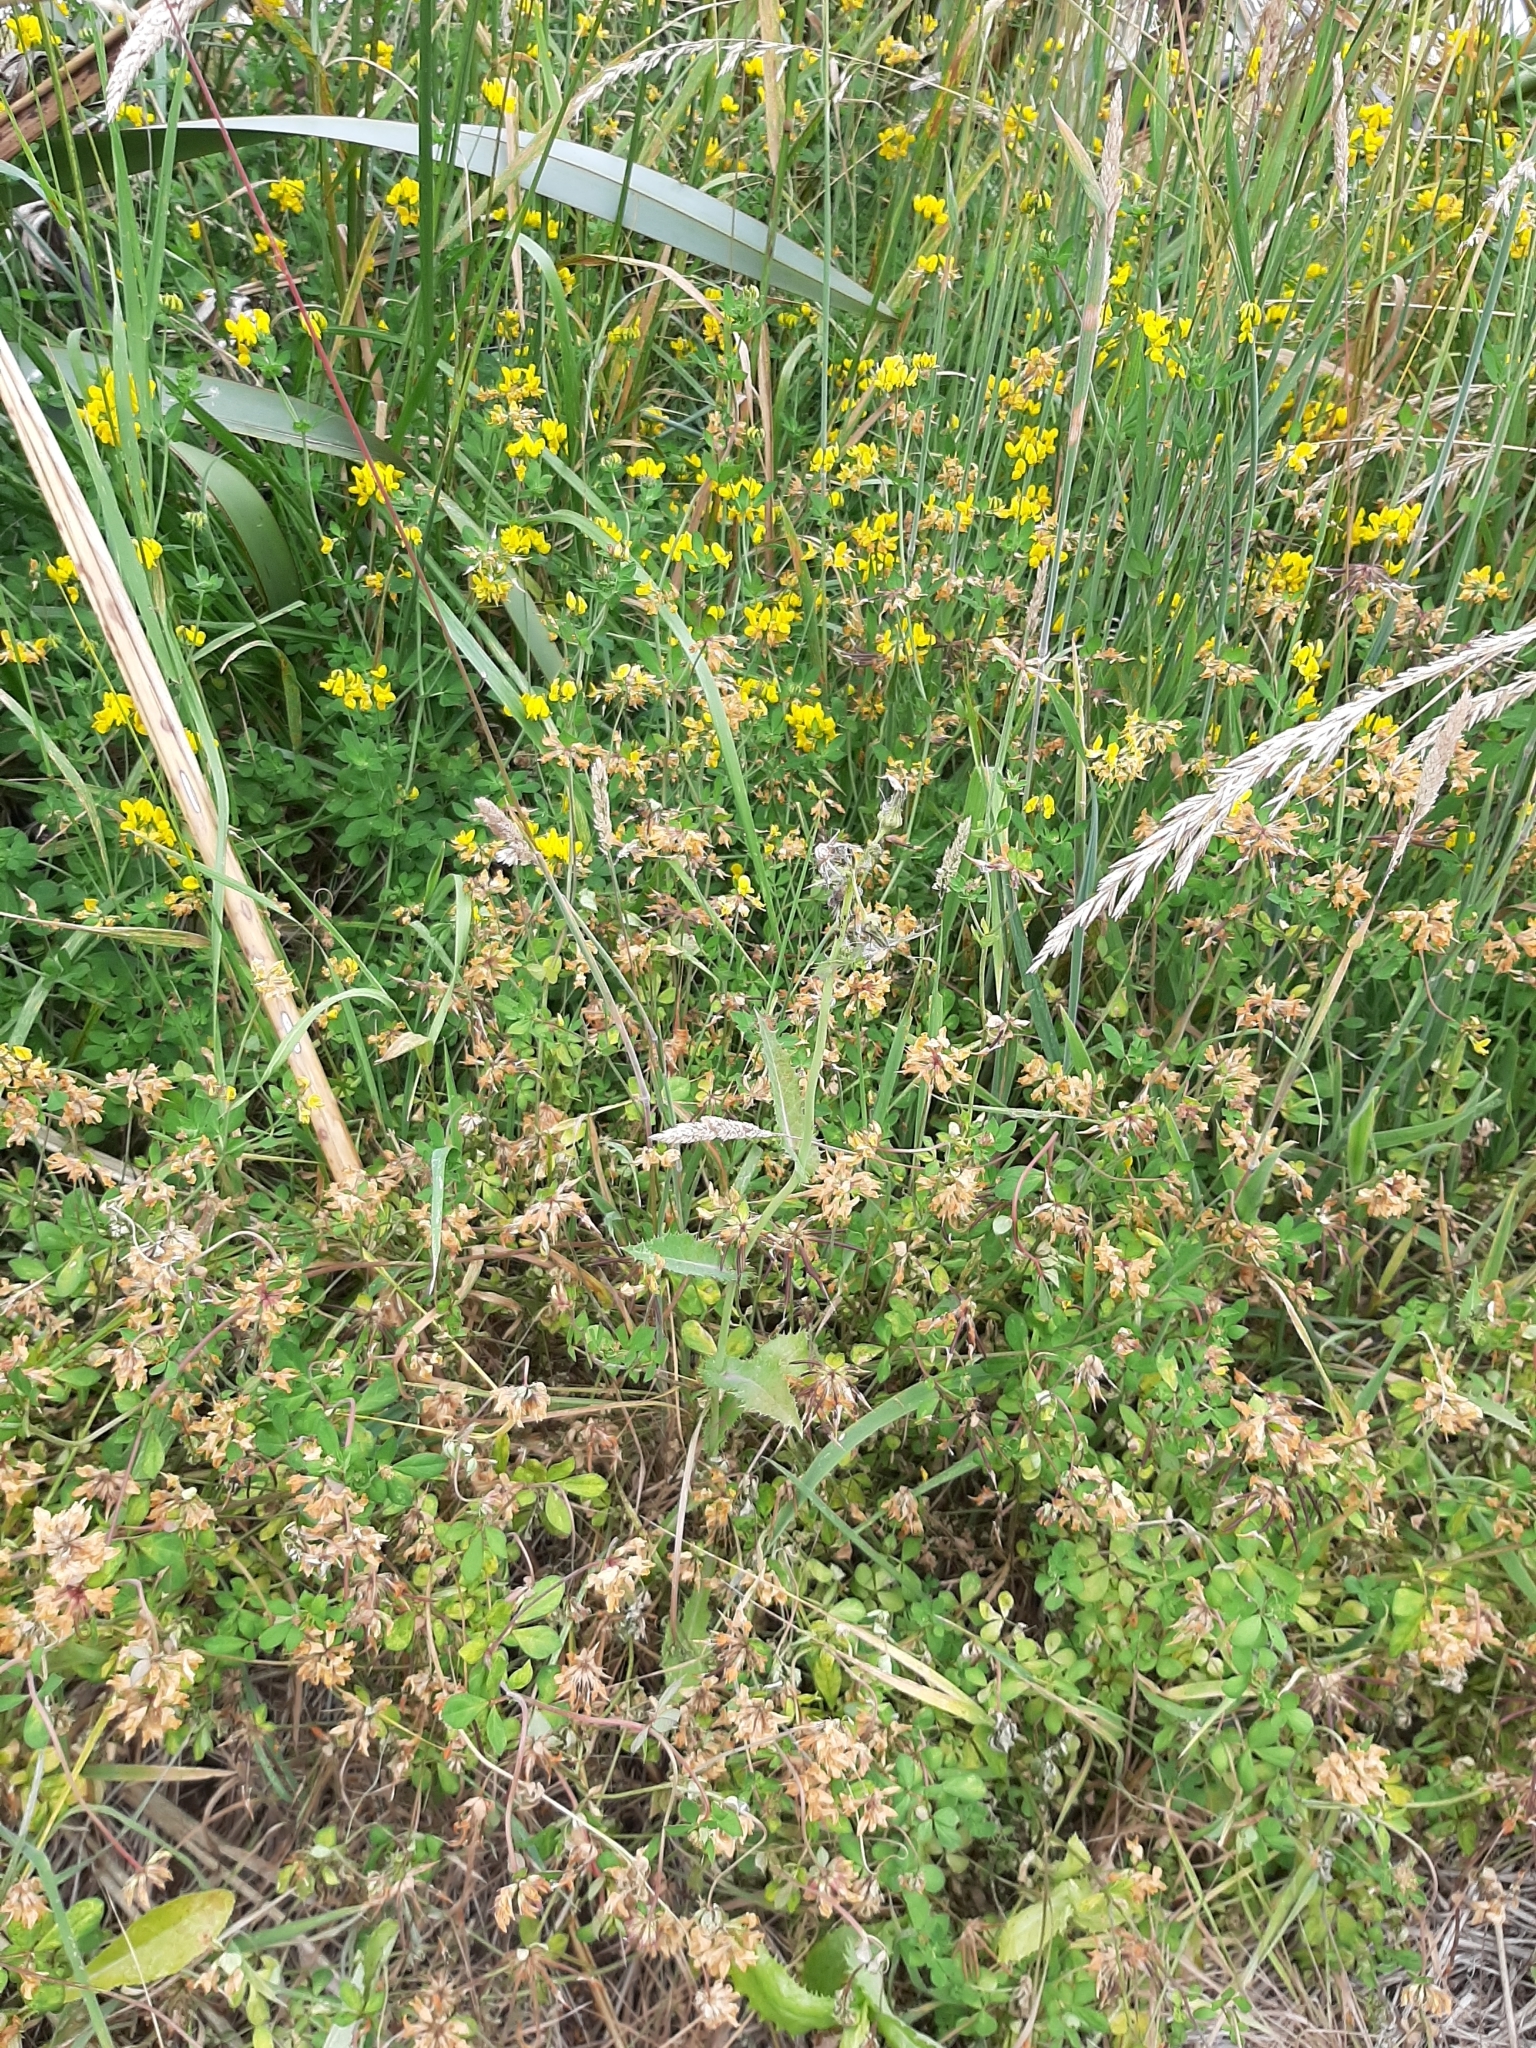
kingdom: Plantae
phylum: Tracheophyta
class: Magnoliopsida
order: Fabales
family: Fabaceae
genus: Lotus
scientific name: Lotus pedunculatus
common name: Greater birdsfoot-trefoil
